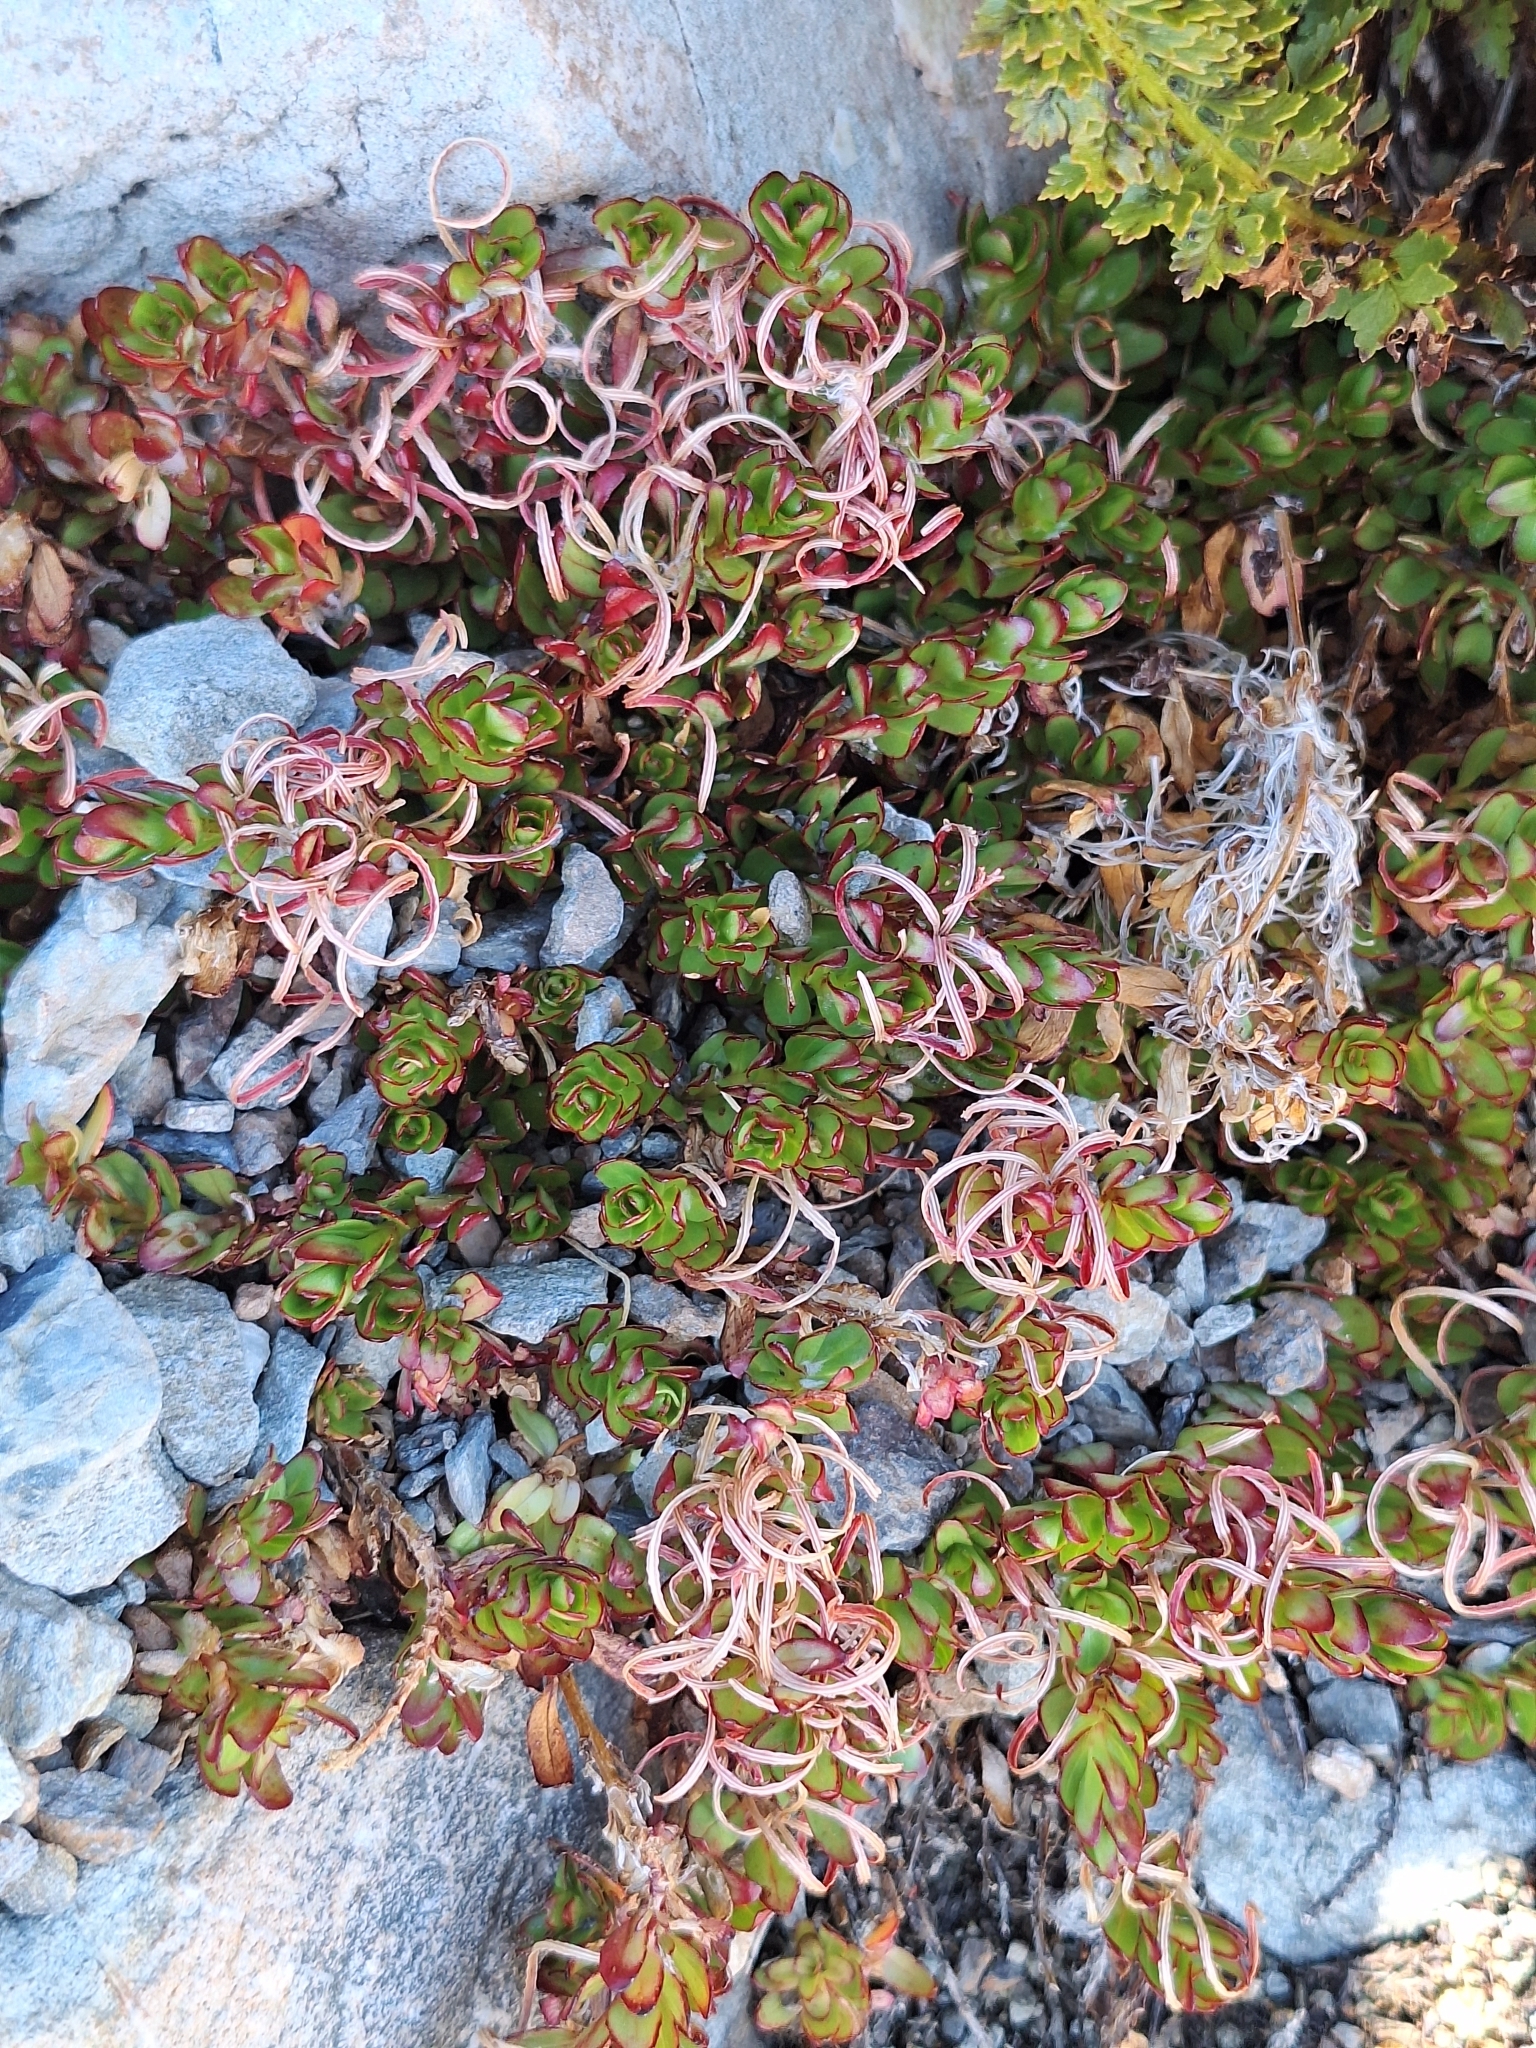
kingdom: Plantae
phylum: Tracheophyta
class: Magnoliopsida
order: Myrtales
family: Onagraceae
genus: Epilobium
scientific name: Epilobium glabellum
